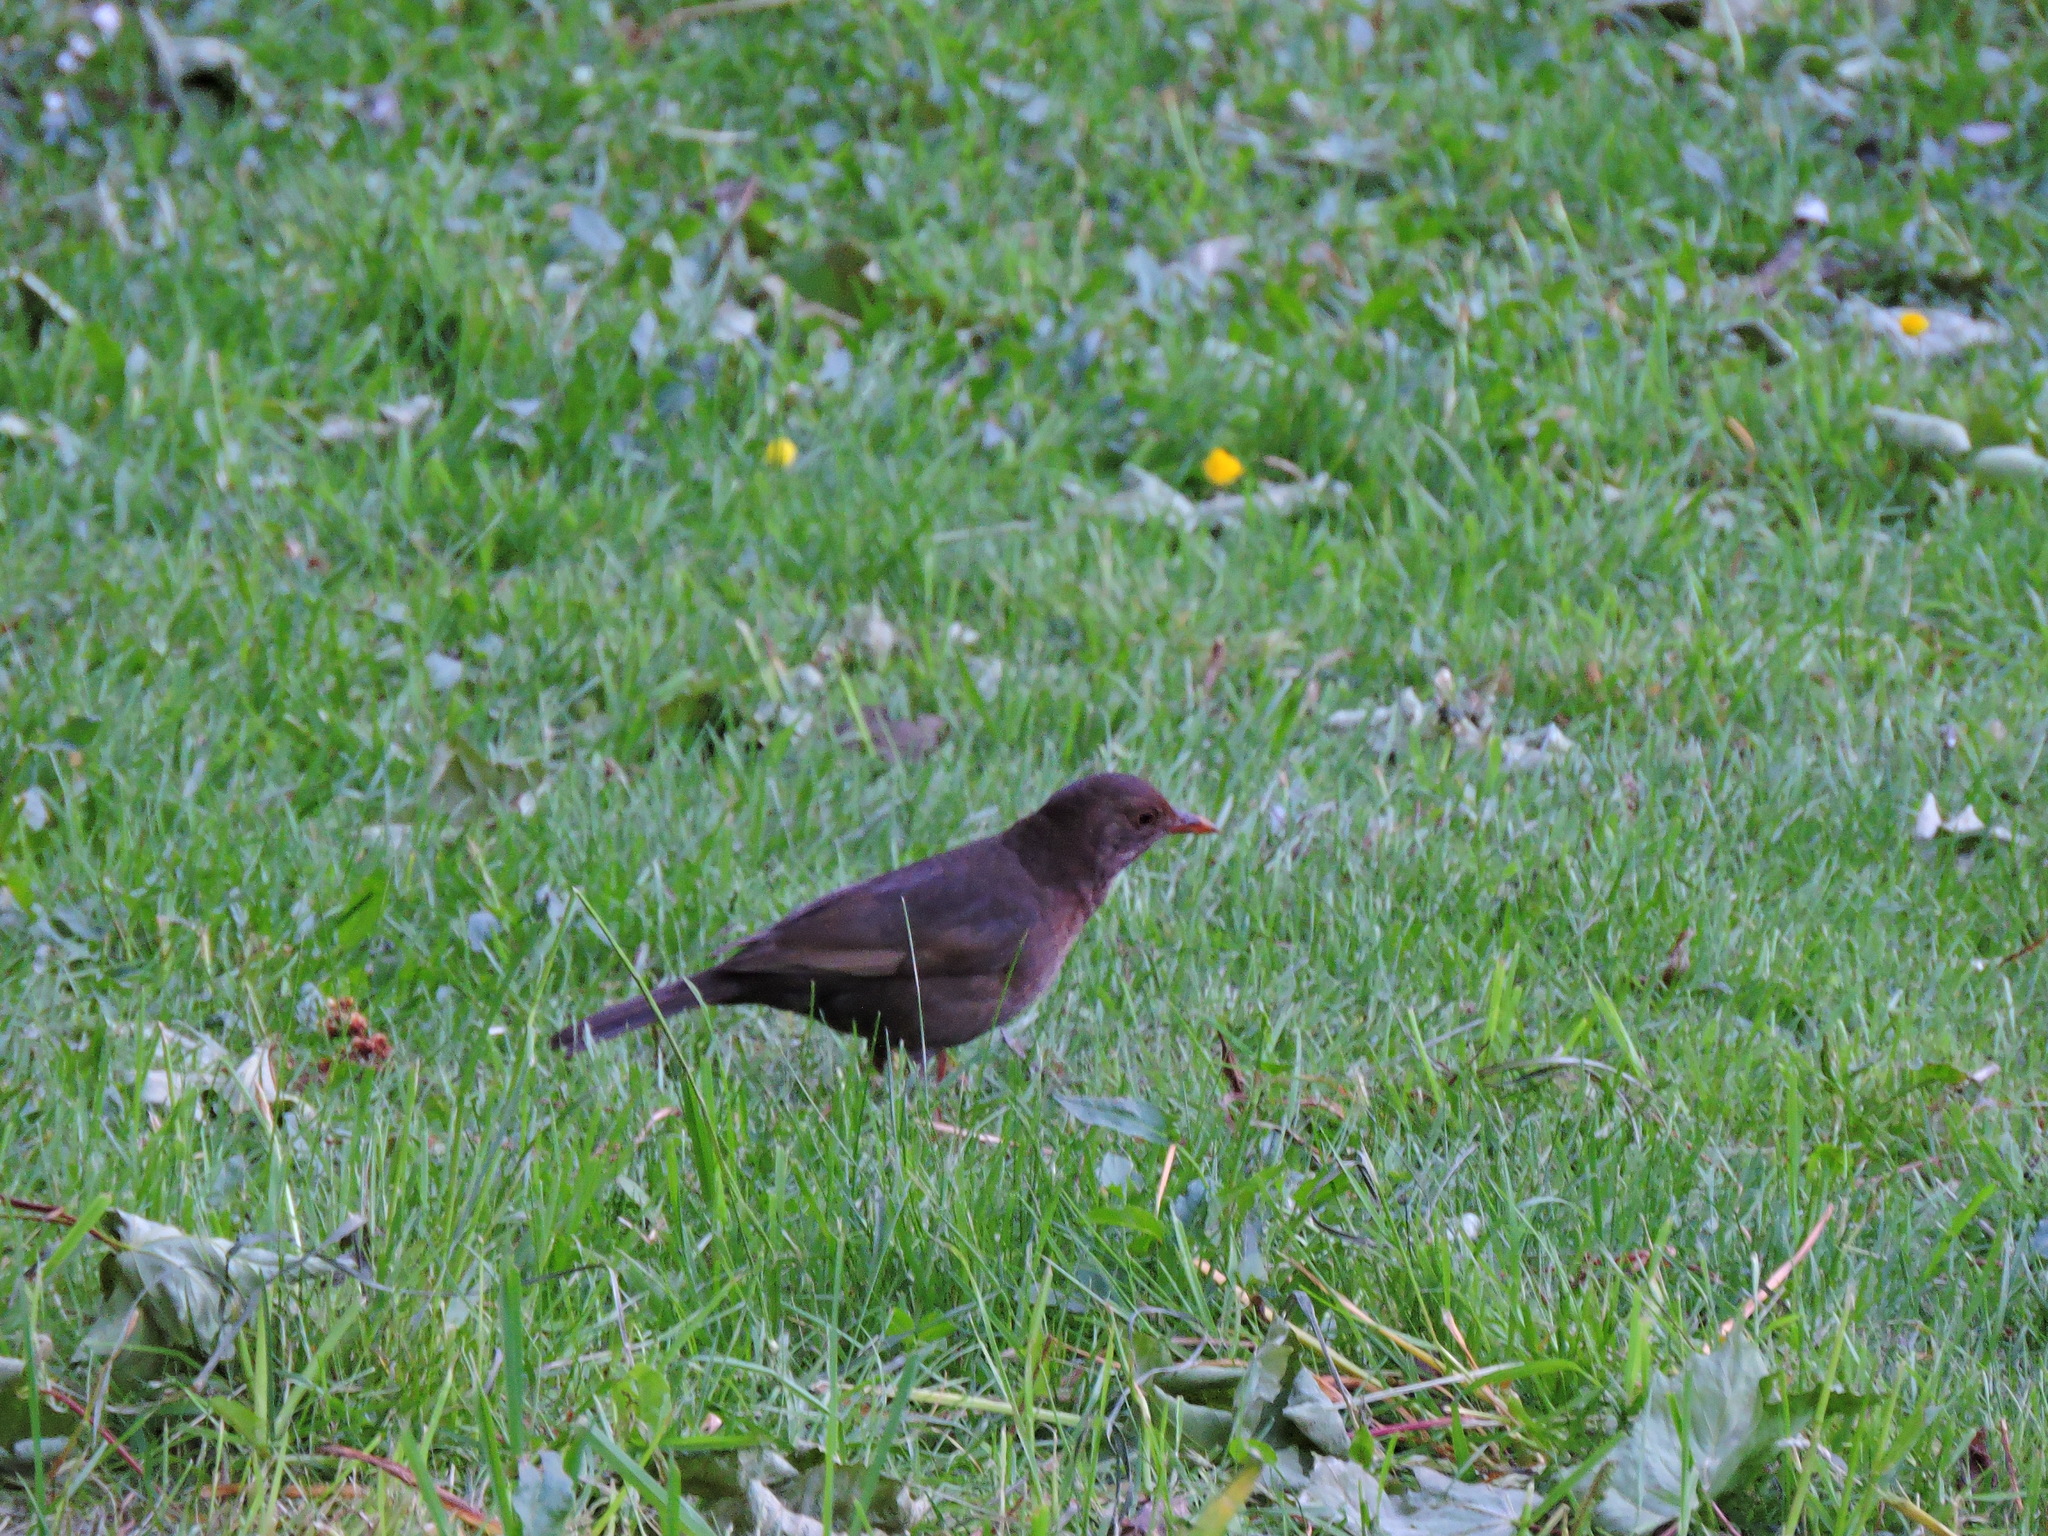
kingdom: Animalia
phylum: Chordata
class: Aves
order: Passeriformes
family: Turdidae
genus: Turdus
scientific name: Turdus merula
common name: Common blackbird
